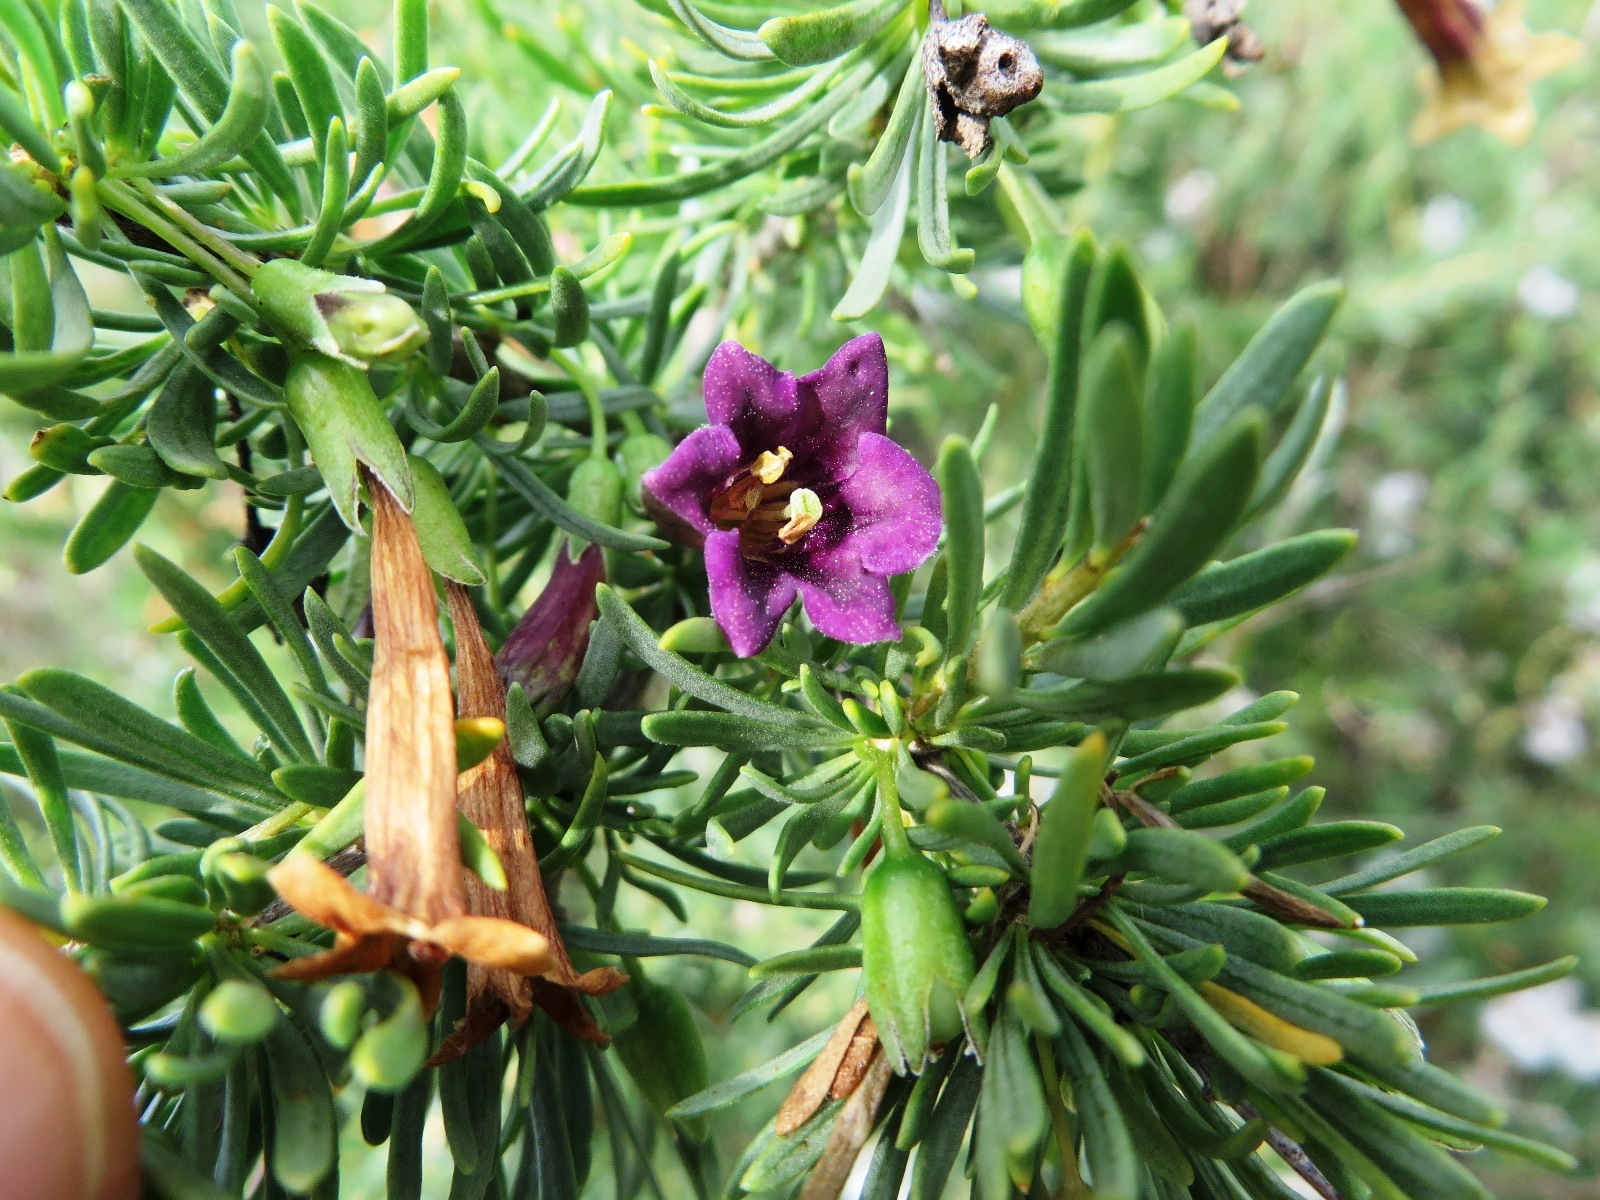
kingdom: Plantae
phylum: Tracheophyta
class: Magnoliopsida
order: Solanales
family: Solanaceae
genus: Lycium
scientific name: Lycium afrum
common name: Kaffir boxthorn
